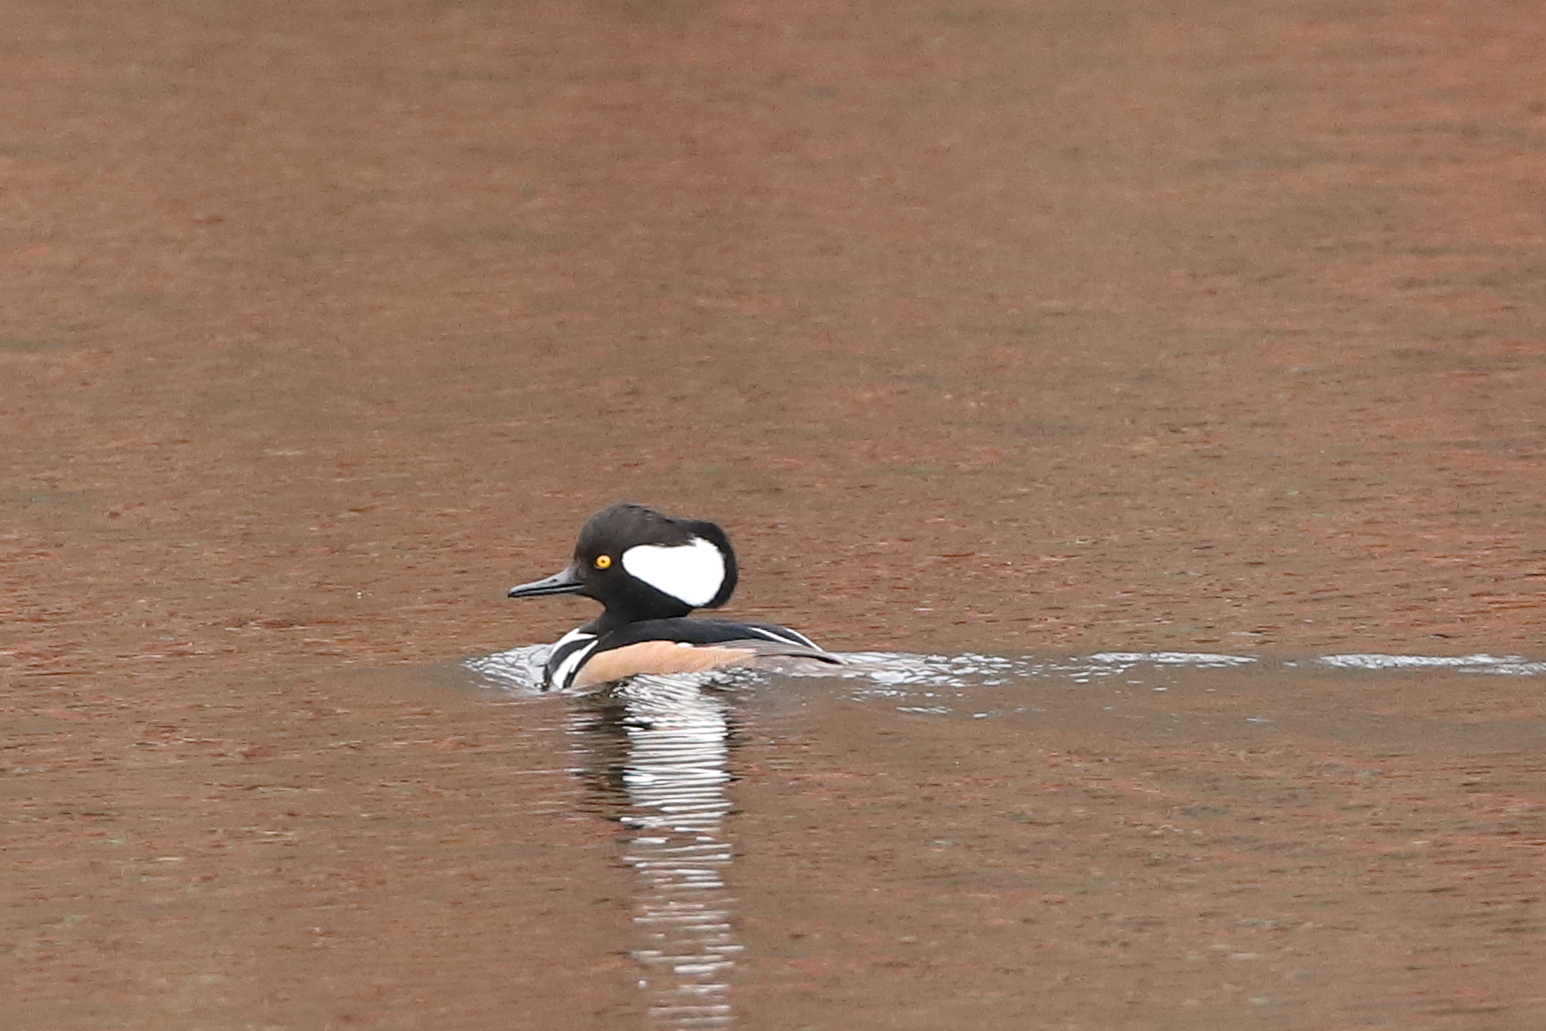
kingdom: Animalia
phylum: Chordata
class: Aves
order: Anseriformes
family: Anatidae
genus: Lophodytes
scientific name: Lophodytes cucullatus
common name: Hooded merganser
